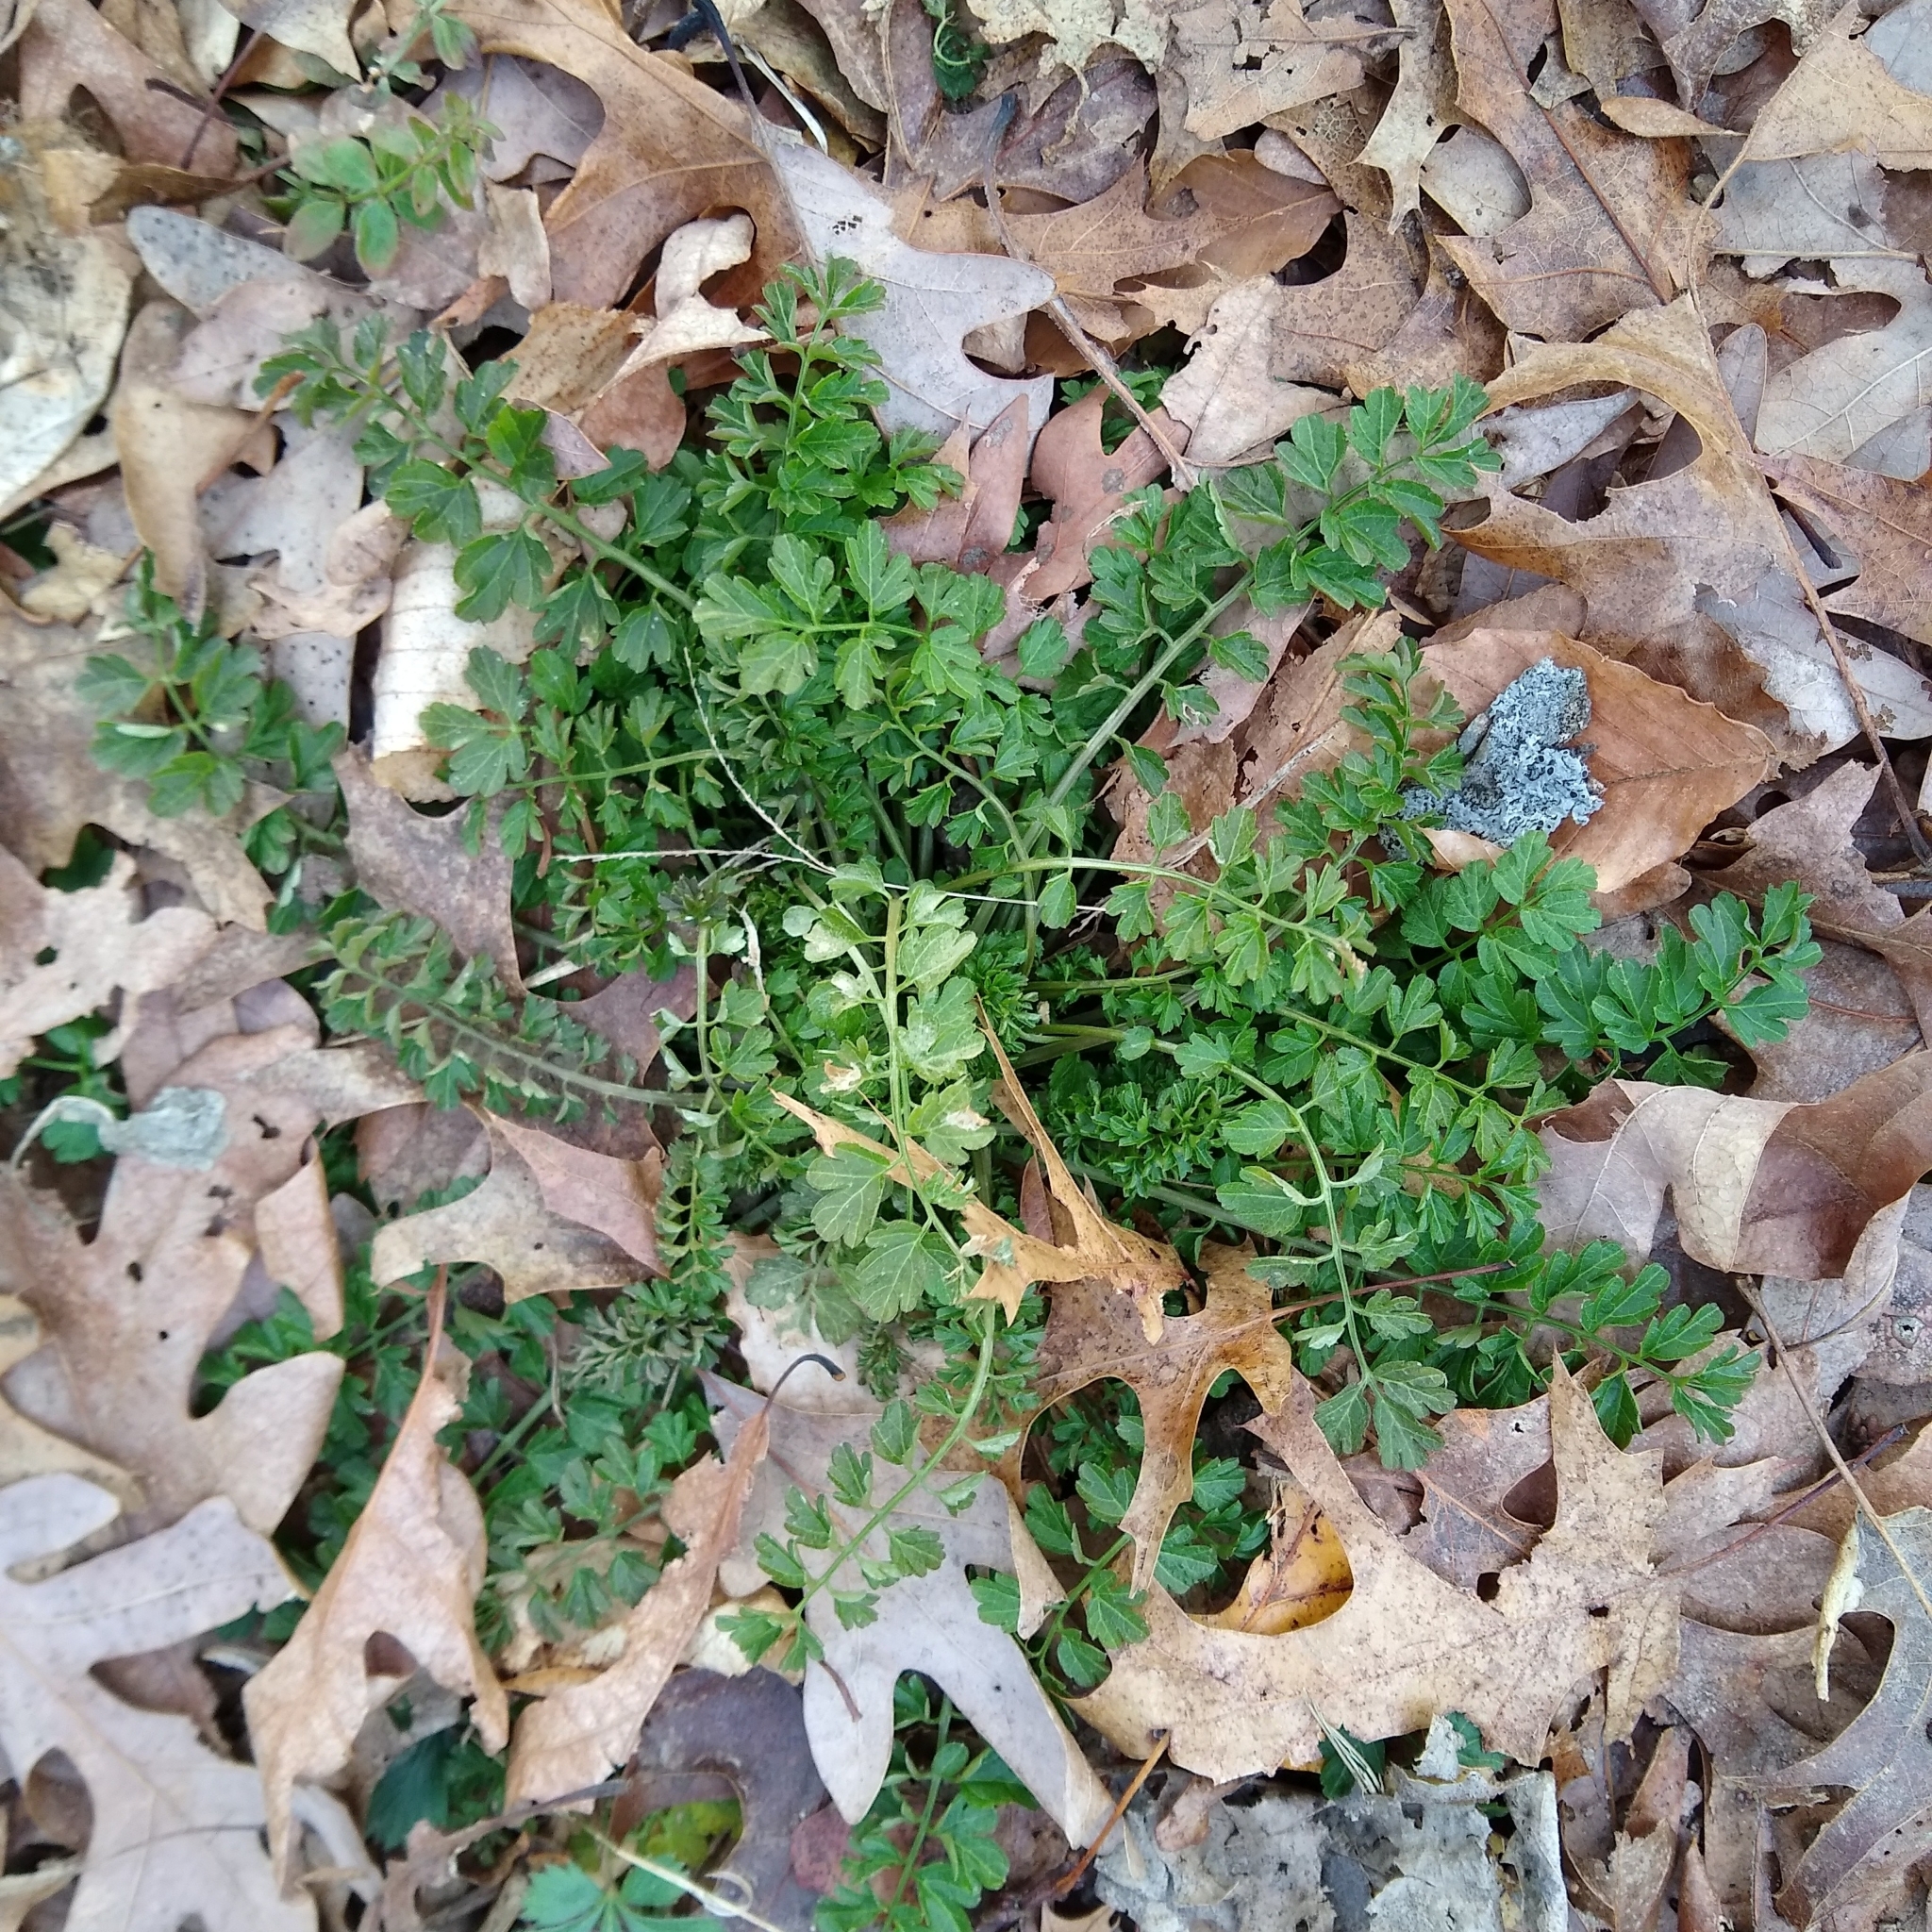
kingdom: Plantae
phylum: Tracheophyta
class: Magnoliopsida
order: Brassicales
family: Brassicaceae
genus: Cardamine
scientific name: Cardamine impatiens
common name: Narrow-leaved bitter-cress
